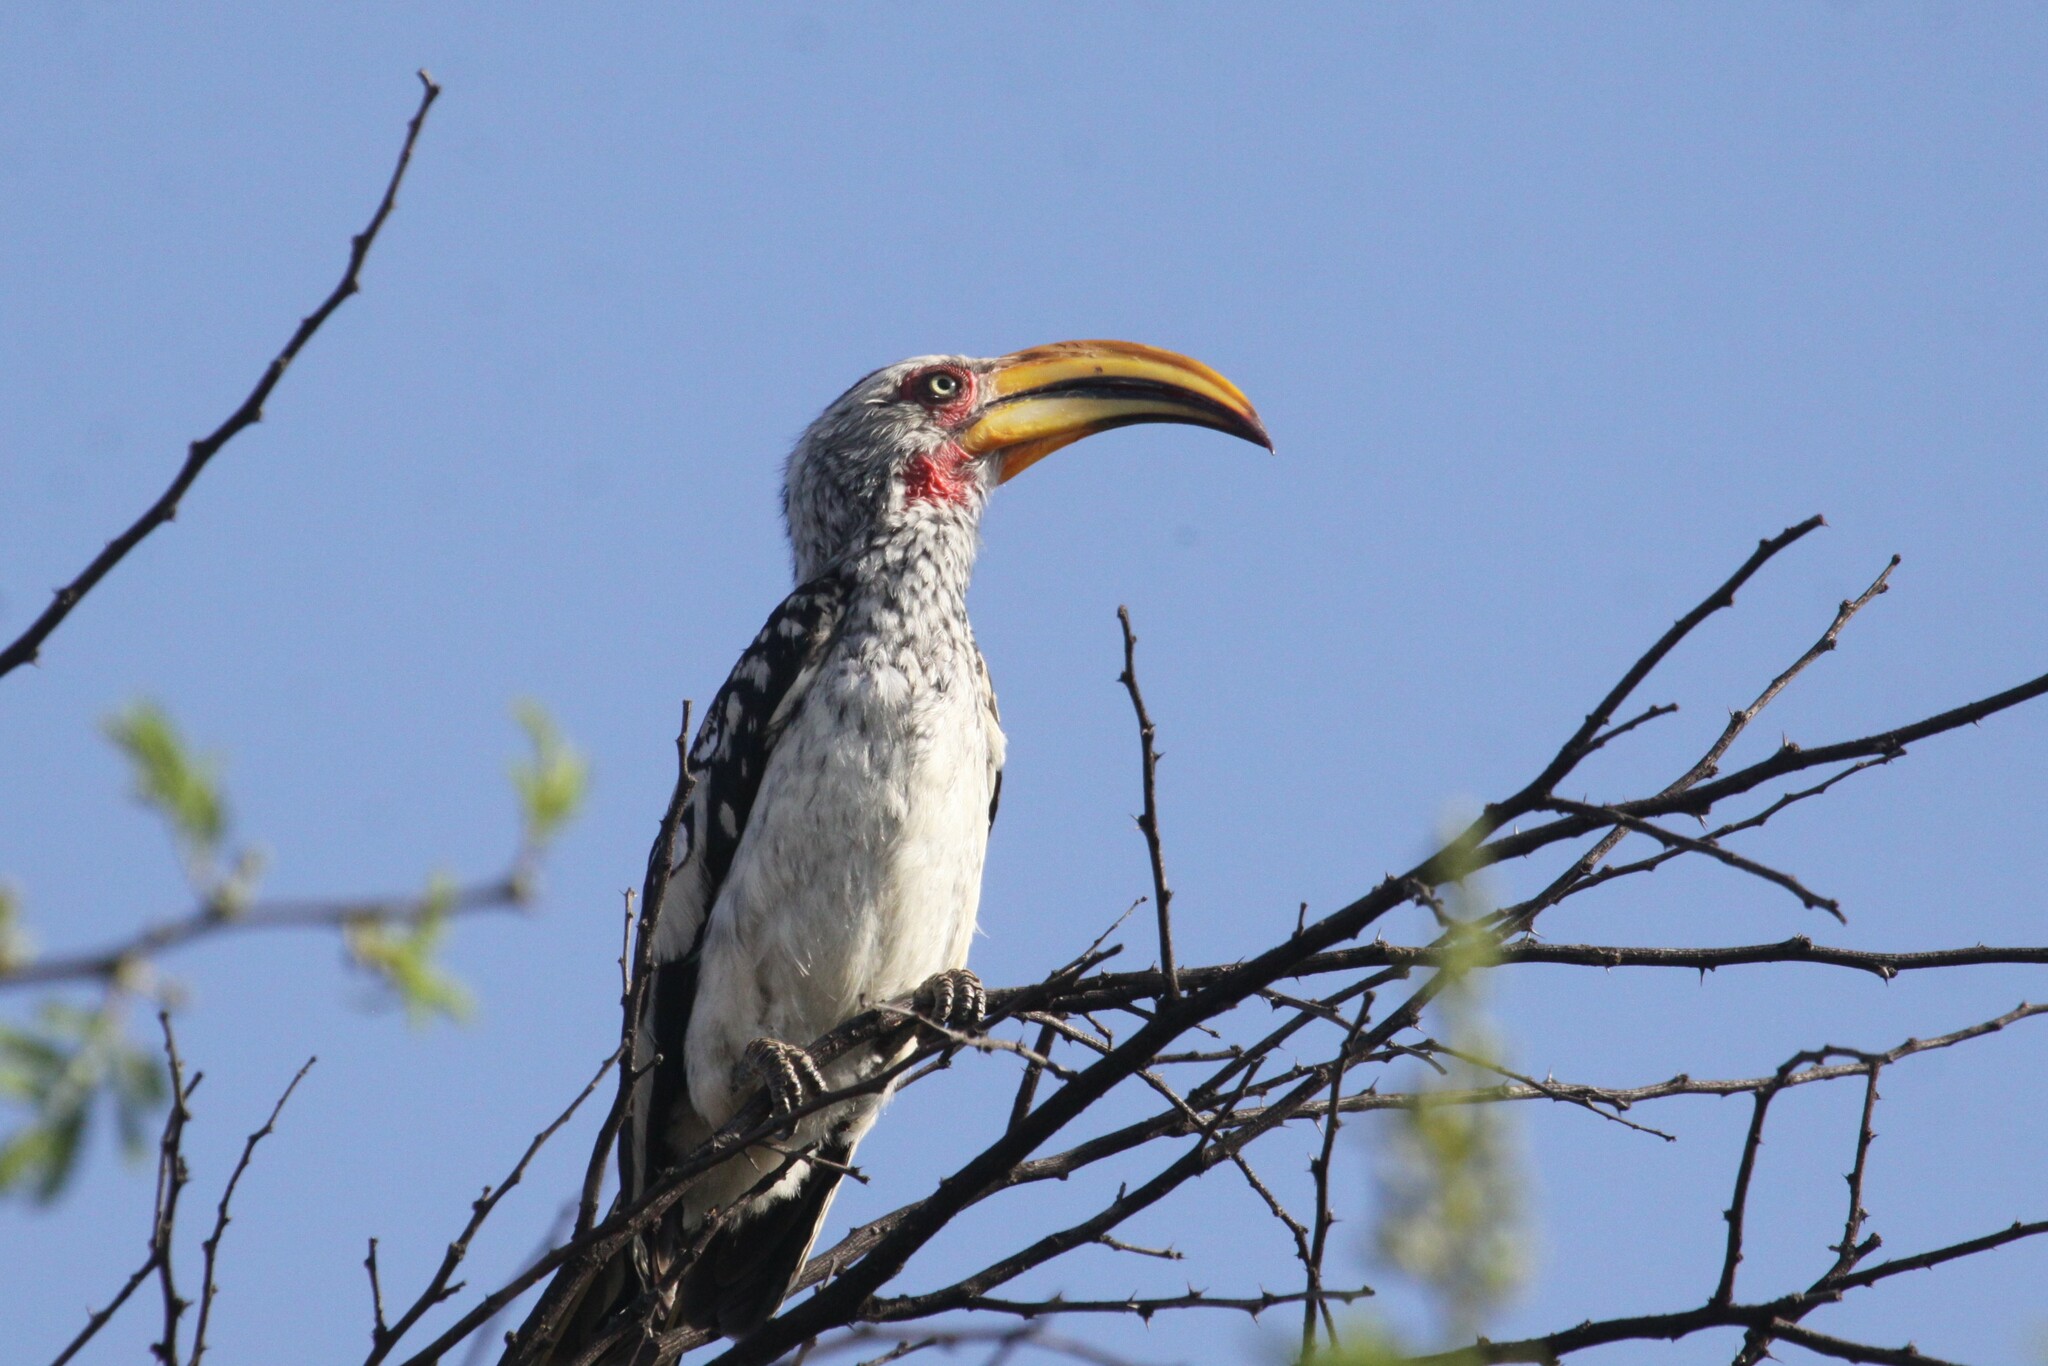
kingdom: Animalia
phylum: Chordata
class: Aves
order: Bucerotiformes
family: Bucerotidae
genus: Tockus
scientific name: Tockus leucomelas
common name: Southern yellow-billed hornbill
